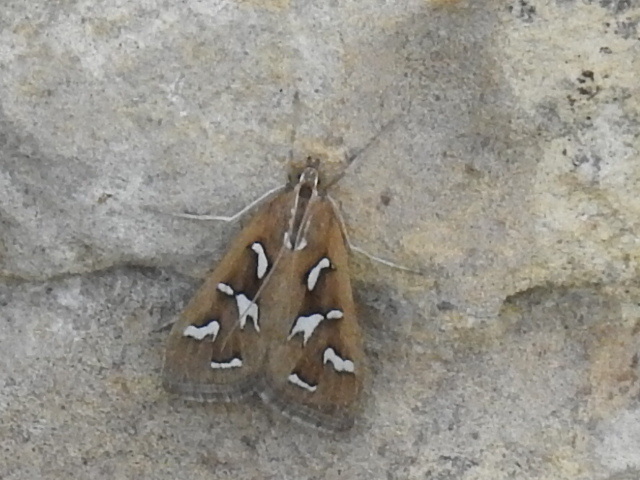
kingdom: Animalia
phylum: Arthropoda
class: Insecta
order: Lepidoptera
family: Crambidae
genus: Diastictis
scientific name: Diastictis fracturalis
